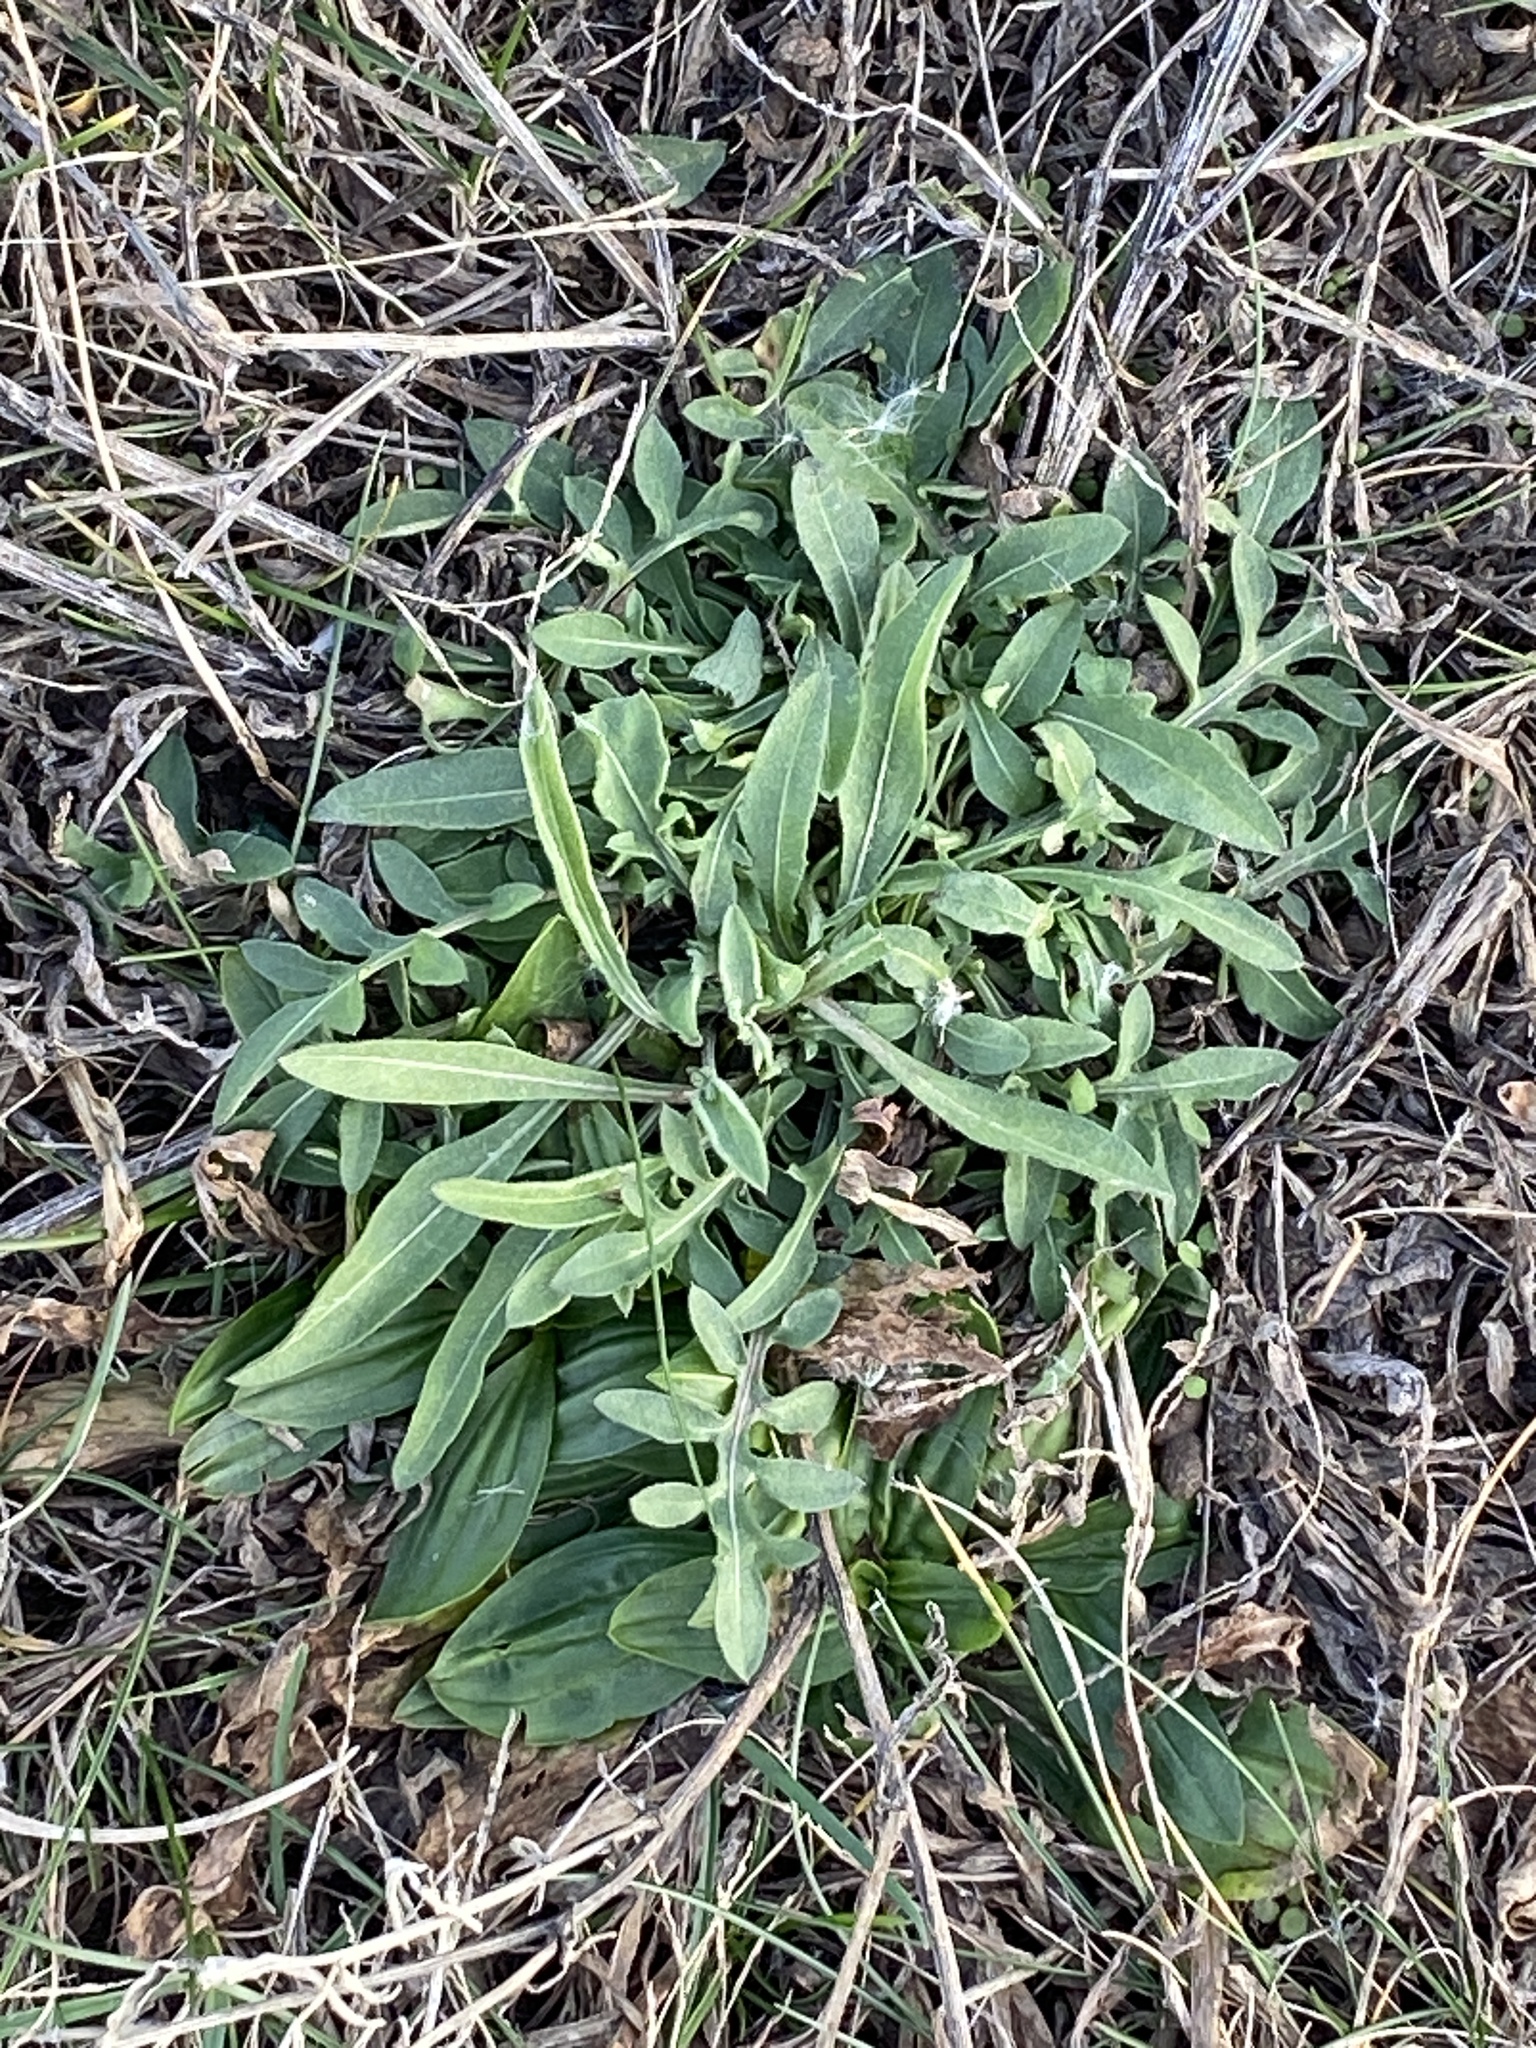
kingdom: Plantae
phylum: Tracheophyta
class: Magnoliopsida
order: Asterales
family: Asteraceae
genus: Centaurea
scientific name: Centaurea stoebe
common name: Spotted knapweed
